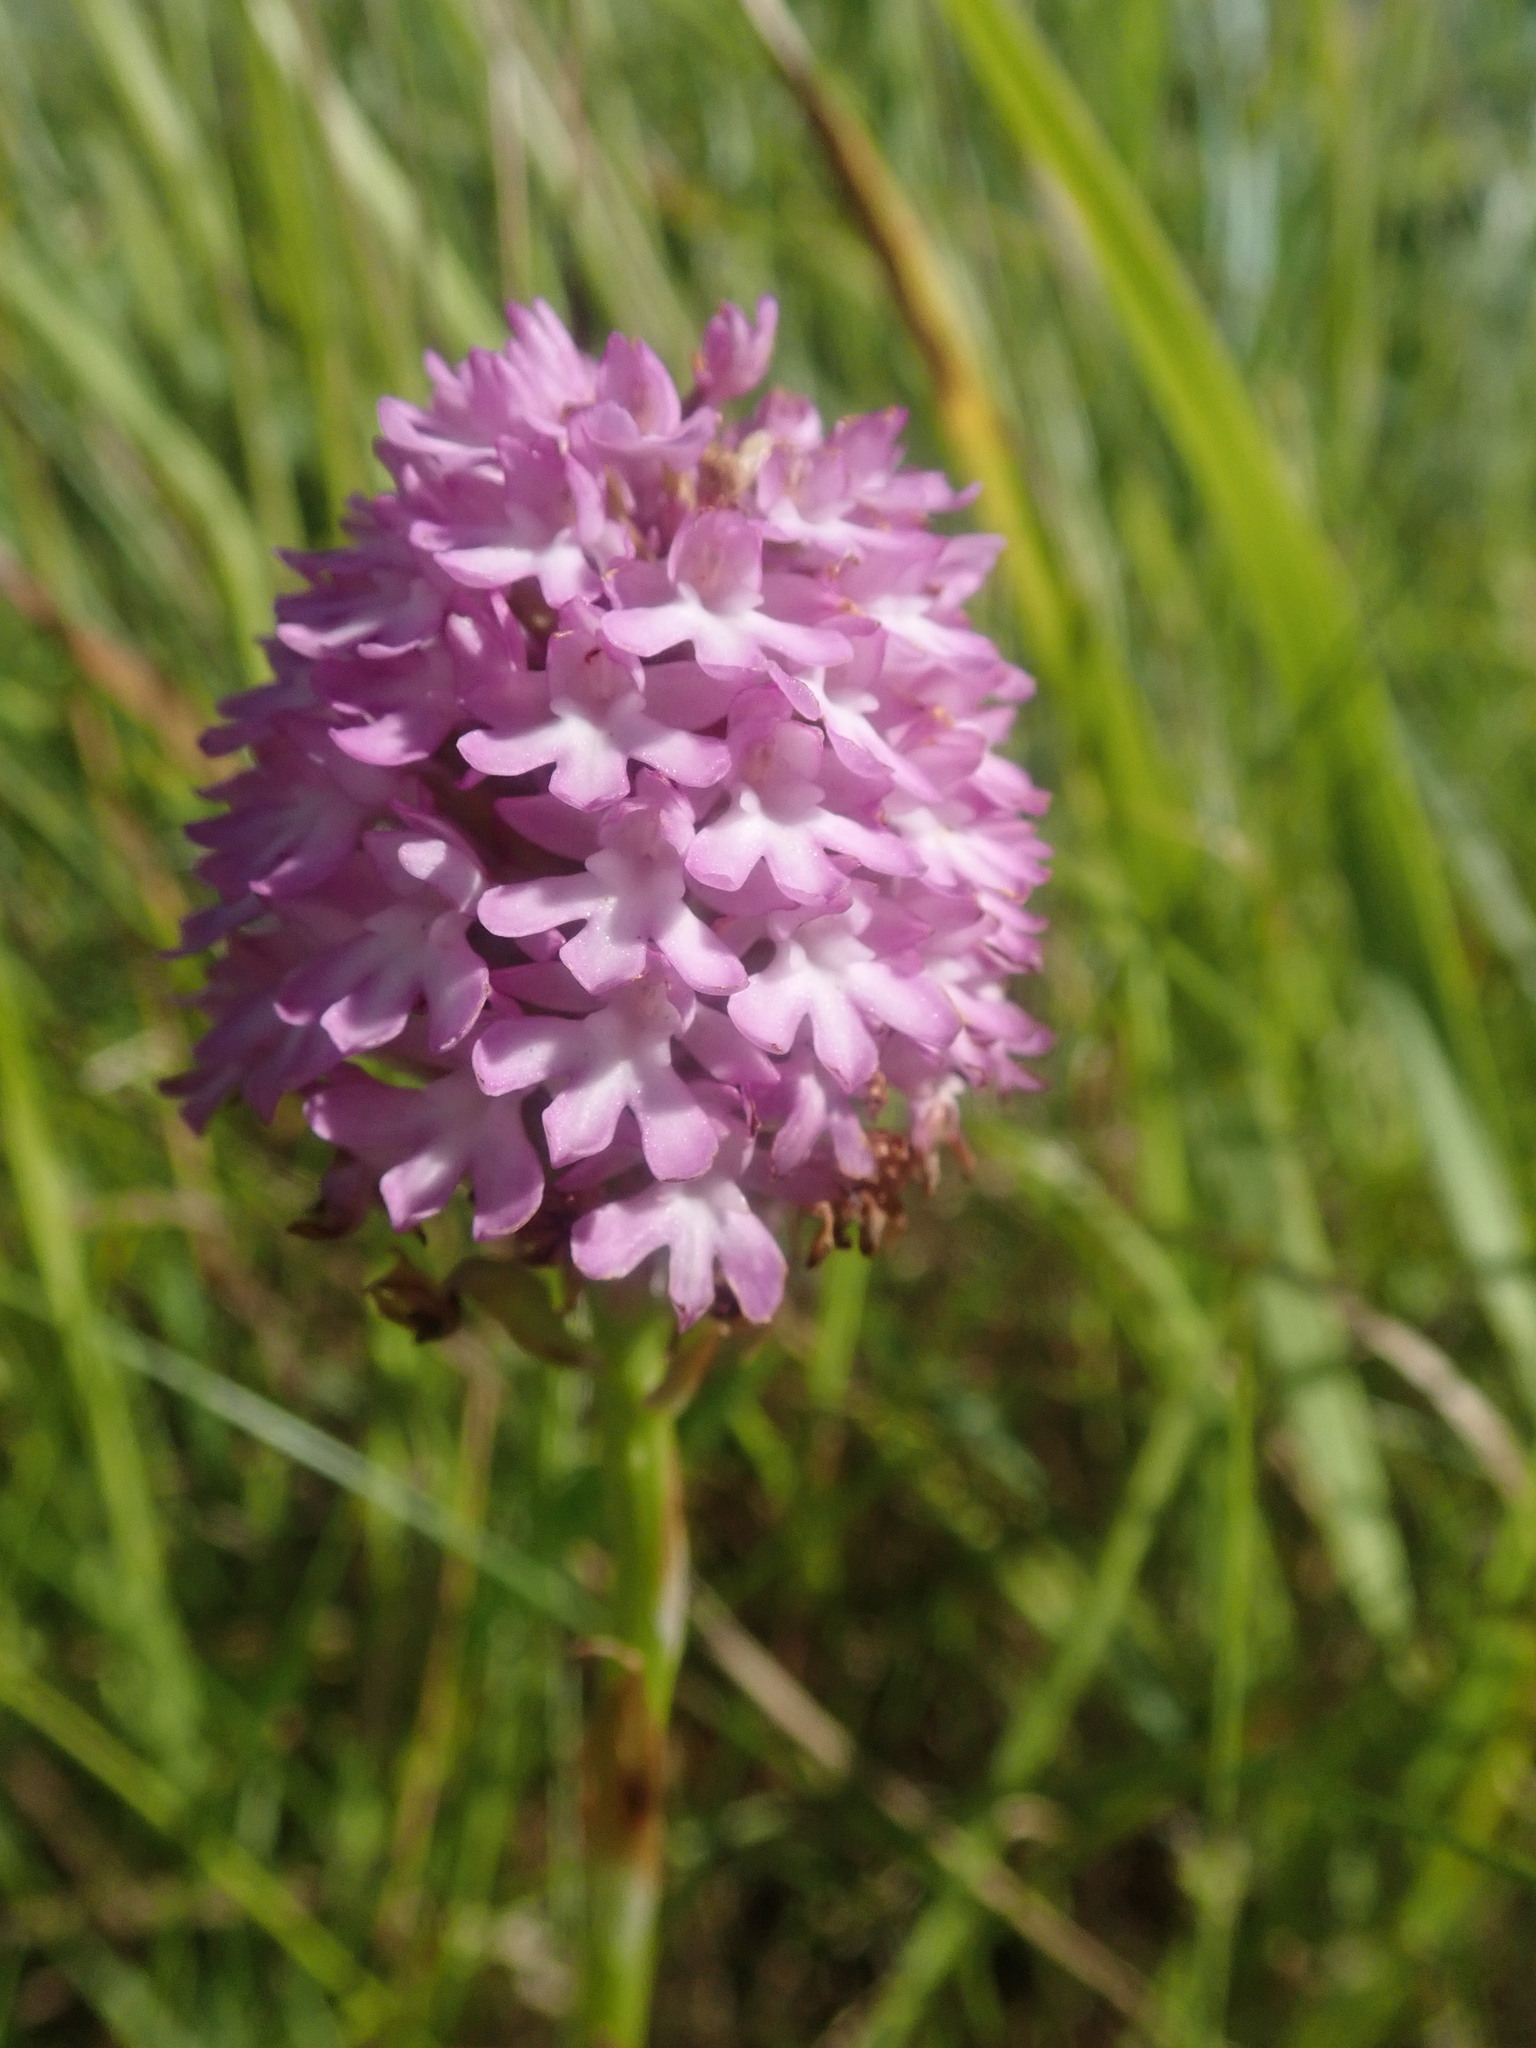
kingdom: Plantae
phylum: Tracheophyta
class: Liliopsida
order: Asparagales
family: Orchidaceae
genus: Anacamptis
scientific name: Anacamptis pyramidalis
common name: Pyramidal orchid
